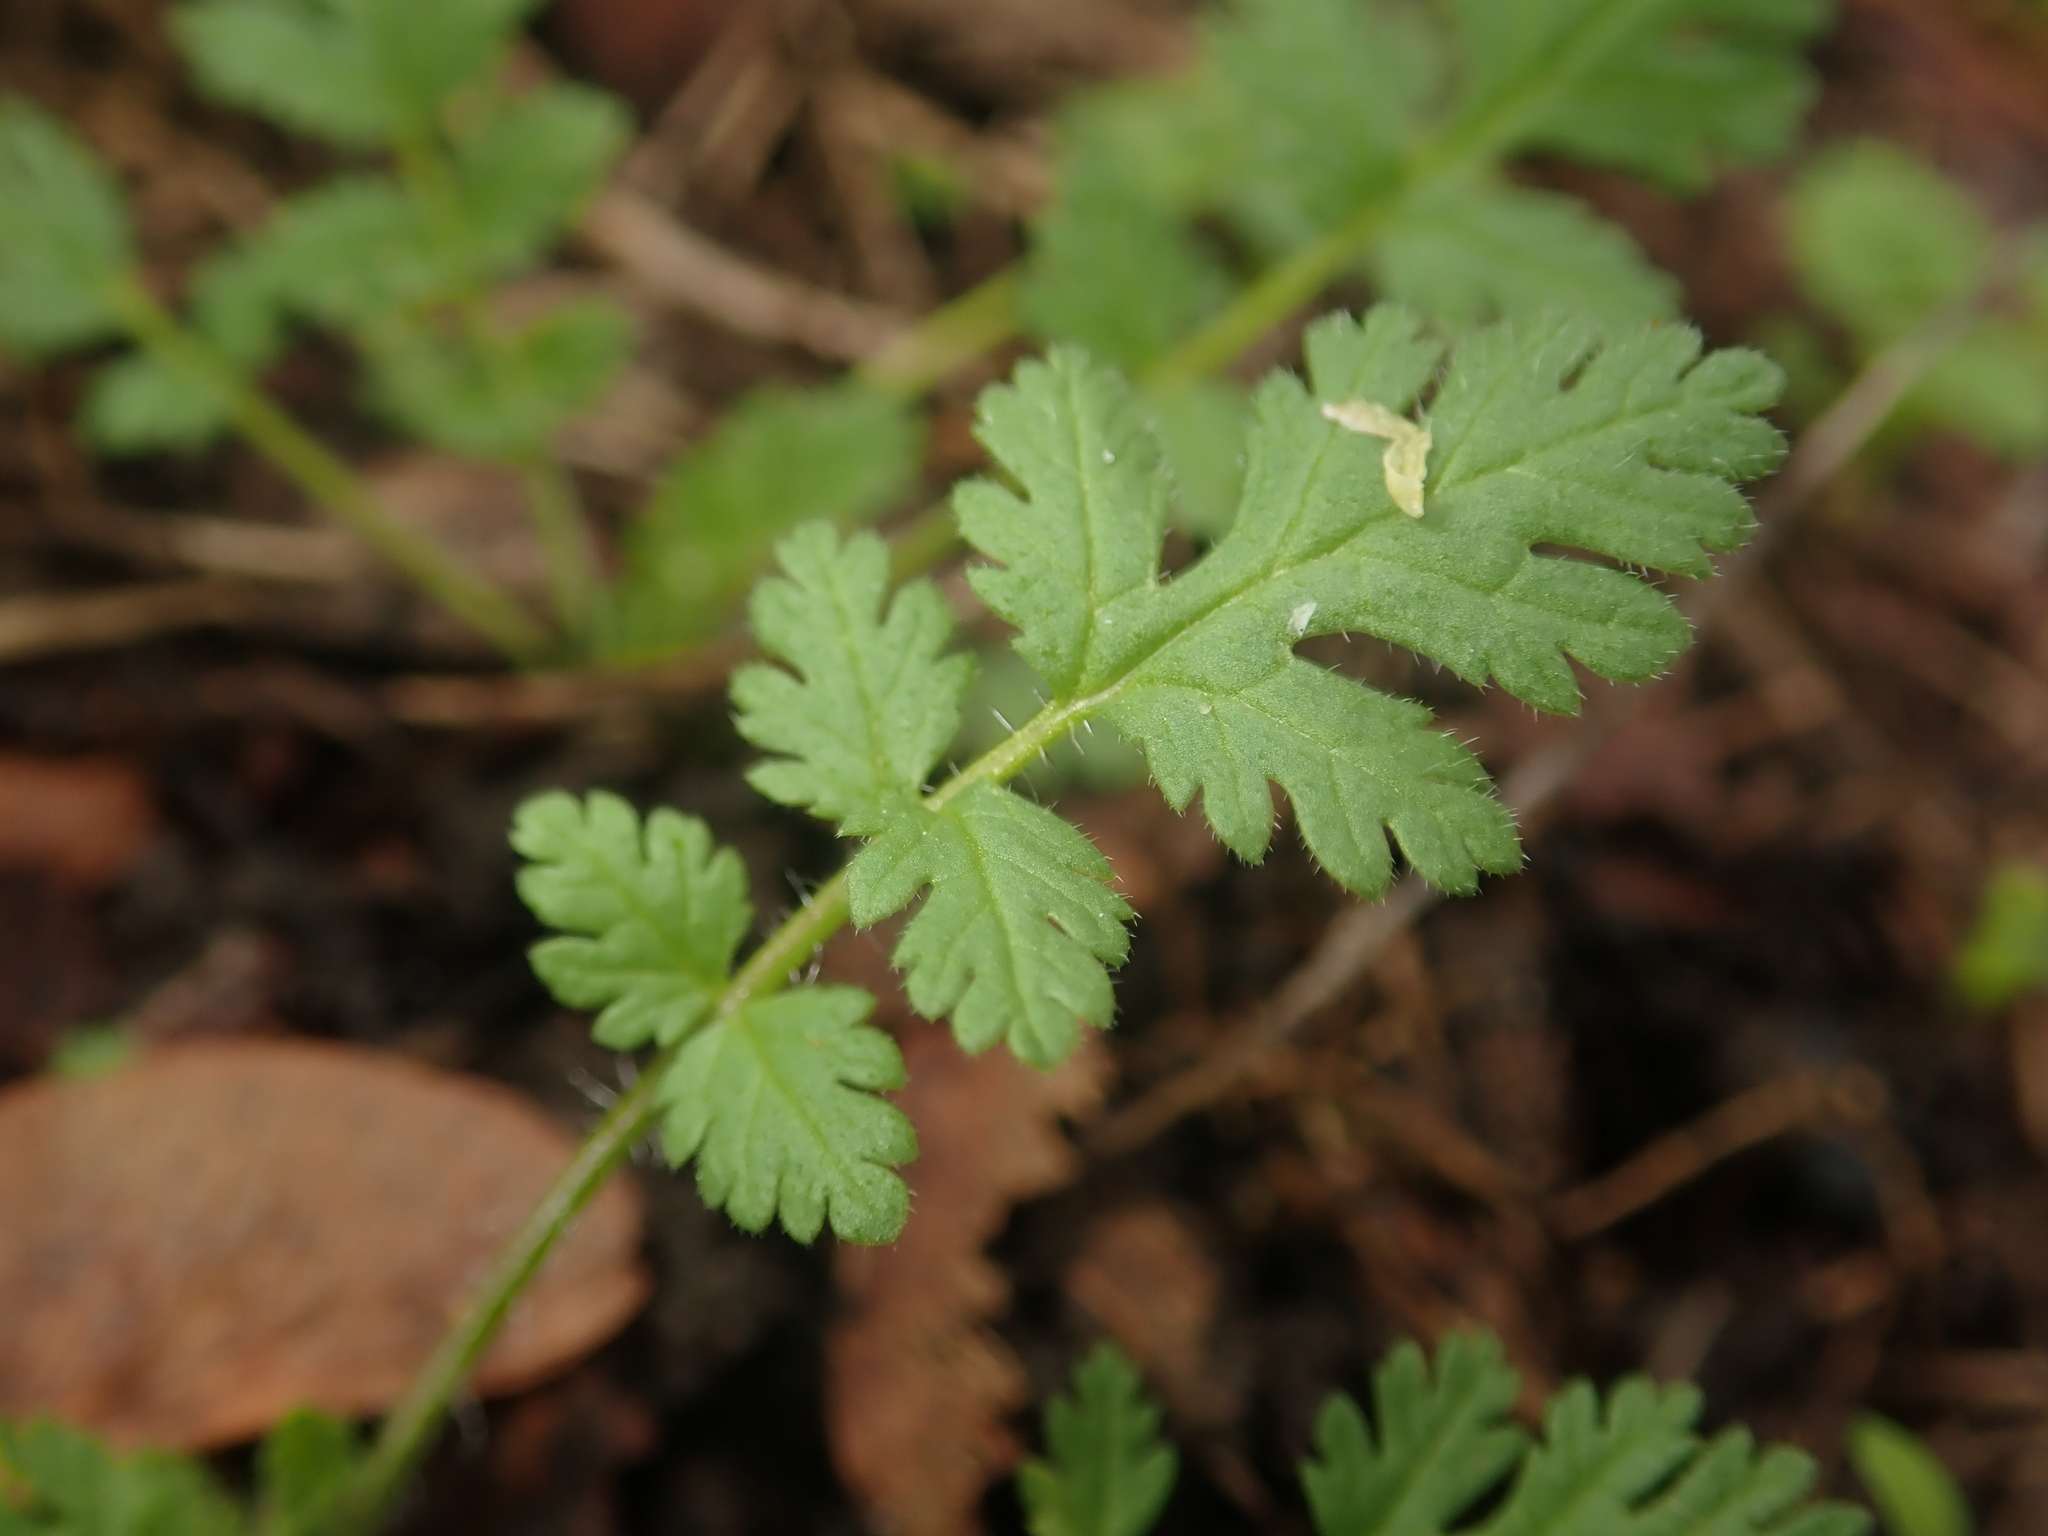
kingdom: Plantae
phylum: Tracheophyta
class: Magnoliopsida
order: Geraniales
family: Geraniaceae
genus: Erodium
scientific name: Erodium cicutarium
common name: Common stork's-bill
